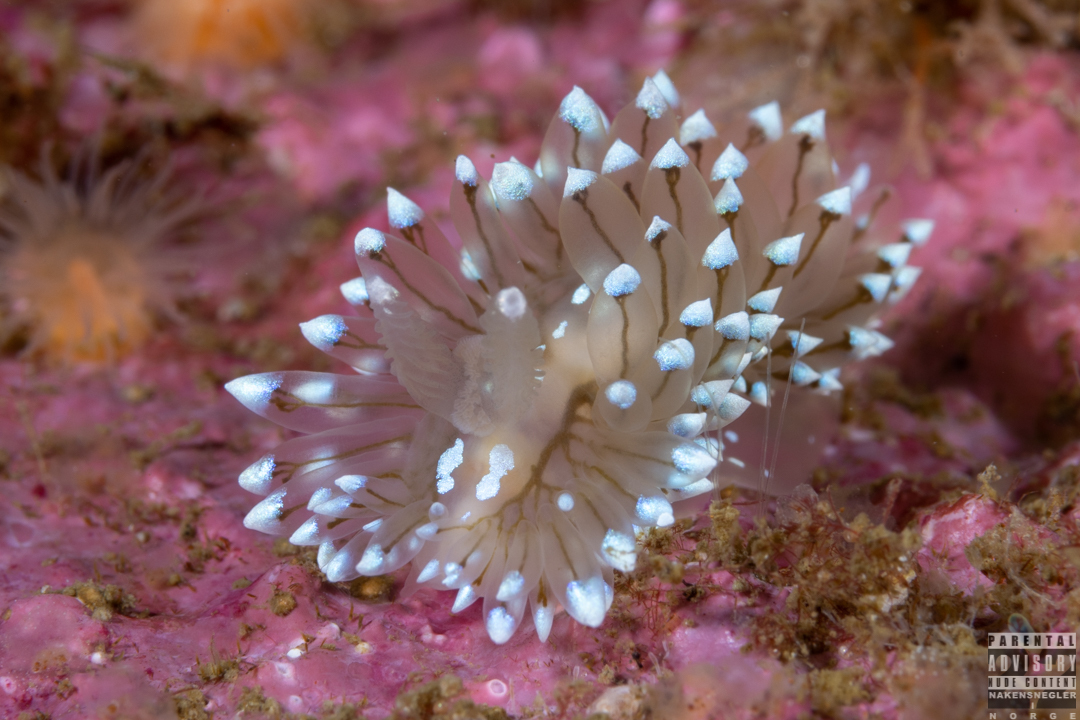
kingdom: Animalia
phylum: Mollusca
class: Gastropoda
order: Nudibranchia
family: Janolidae
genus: Antiopella
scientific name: Antiopella cristata
